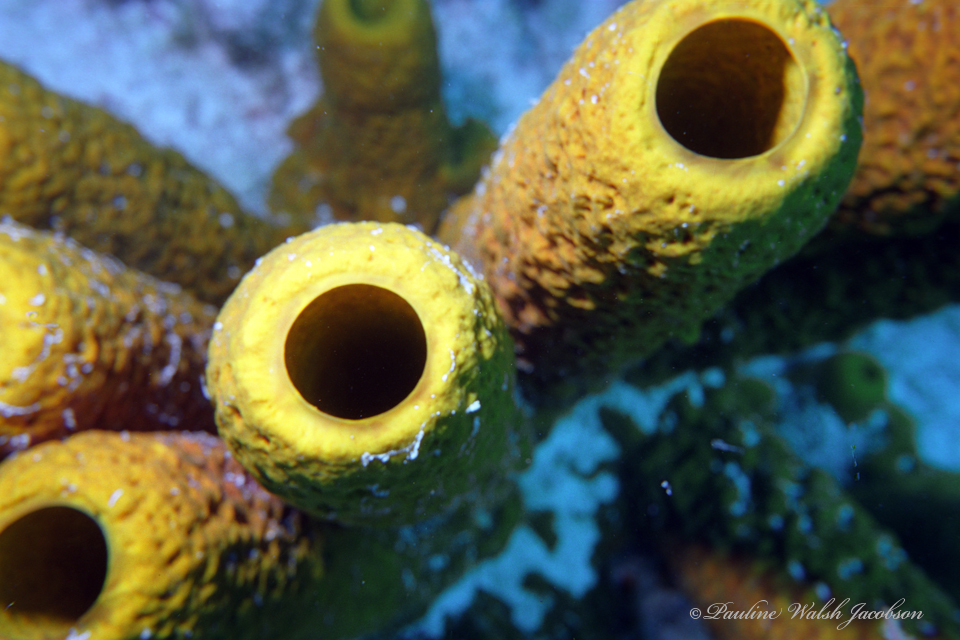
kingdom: Animalia
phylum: Porifera
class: Demospongiae
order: Verongiida
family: Aplysinidae
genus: Aplysina
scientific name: Aplysina fistularis
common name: Candle sponge
